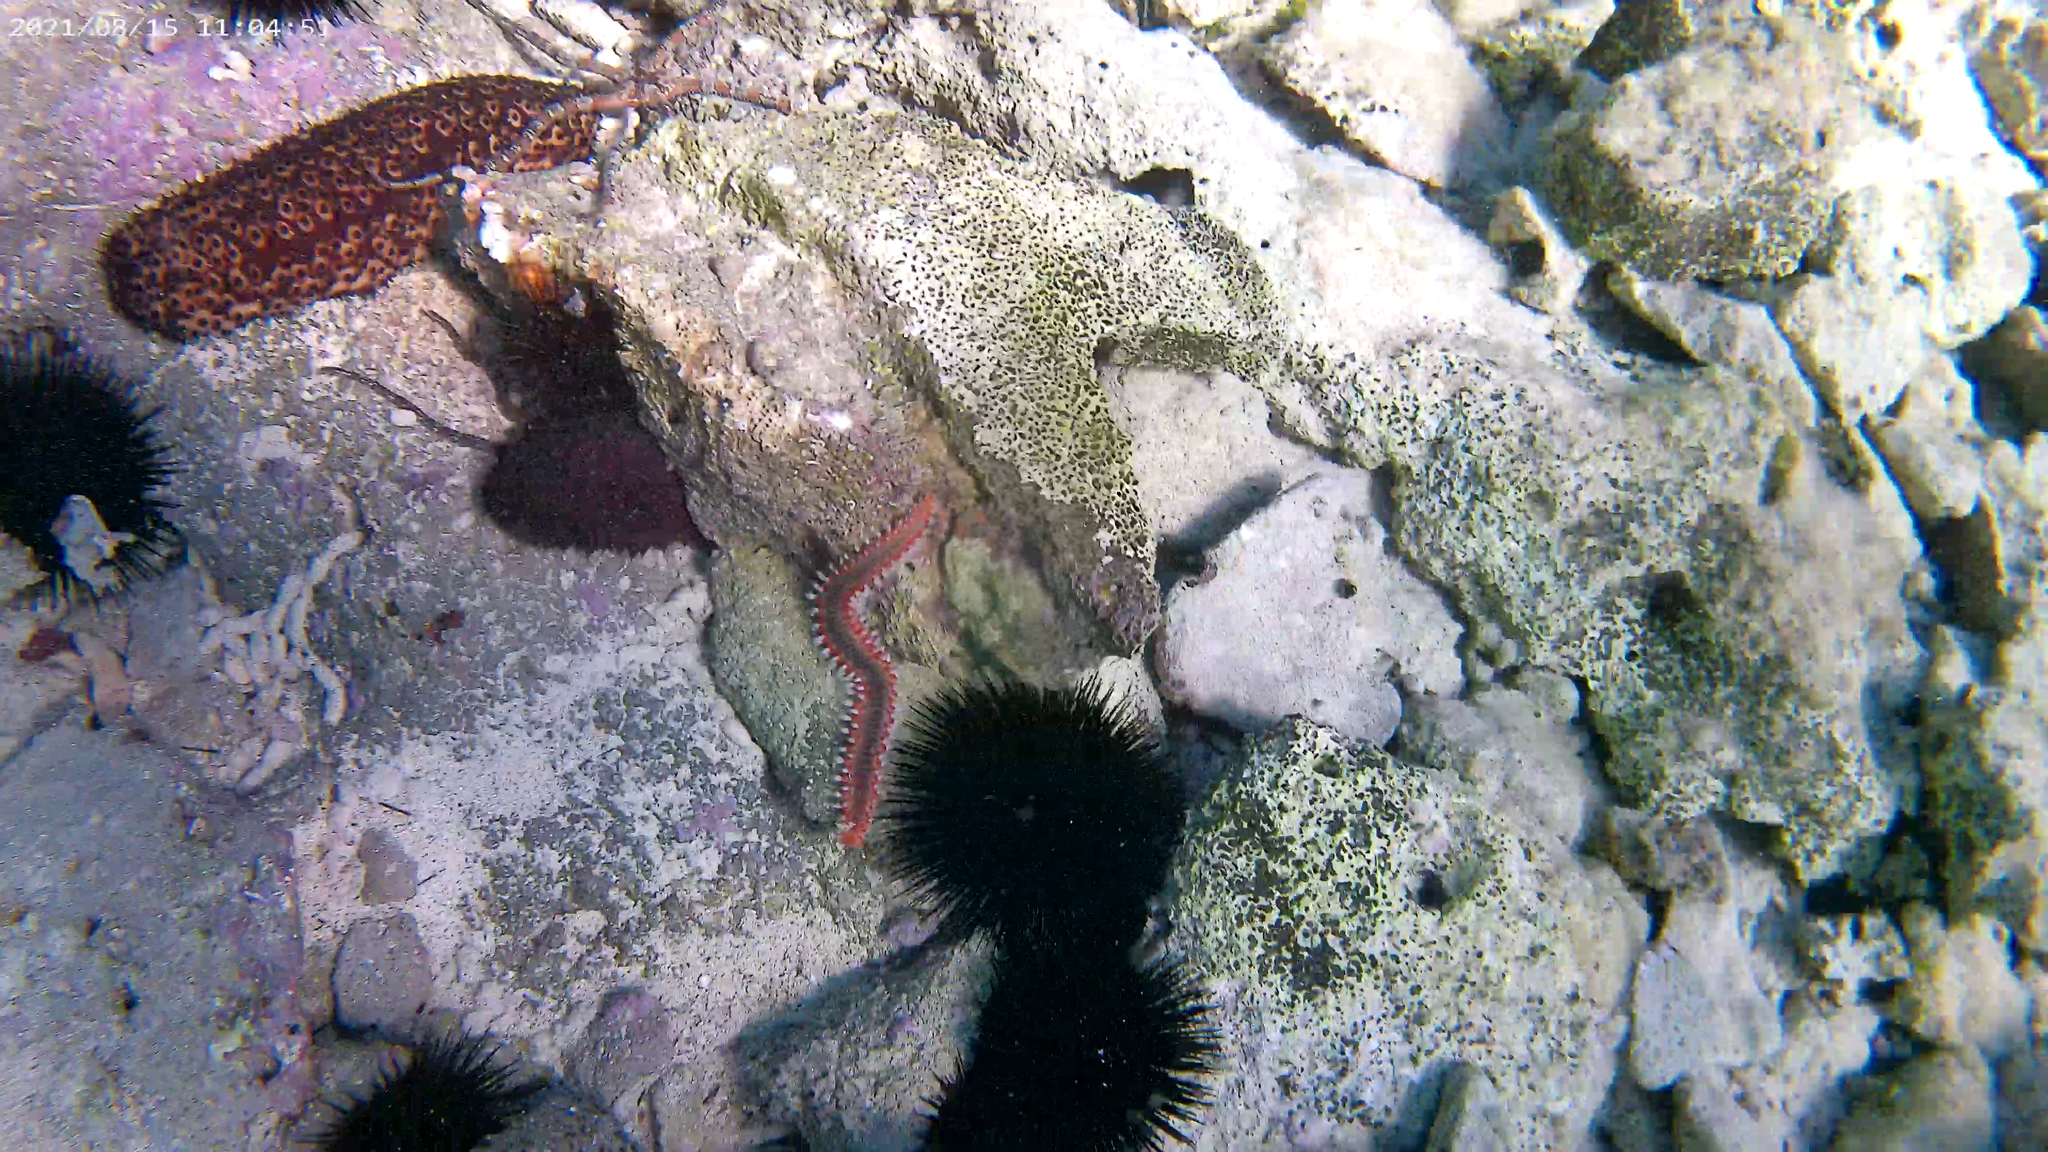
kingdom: Animalia
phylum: Annelida
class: Polychaeta
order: Amphinomida
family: Amphinomidae
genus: Hermodice
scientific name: Hermodice carunculata
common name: Bearded fireworm
